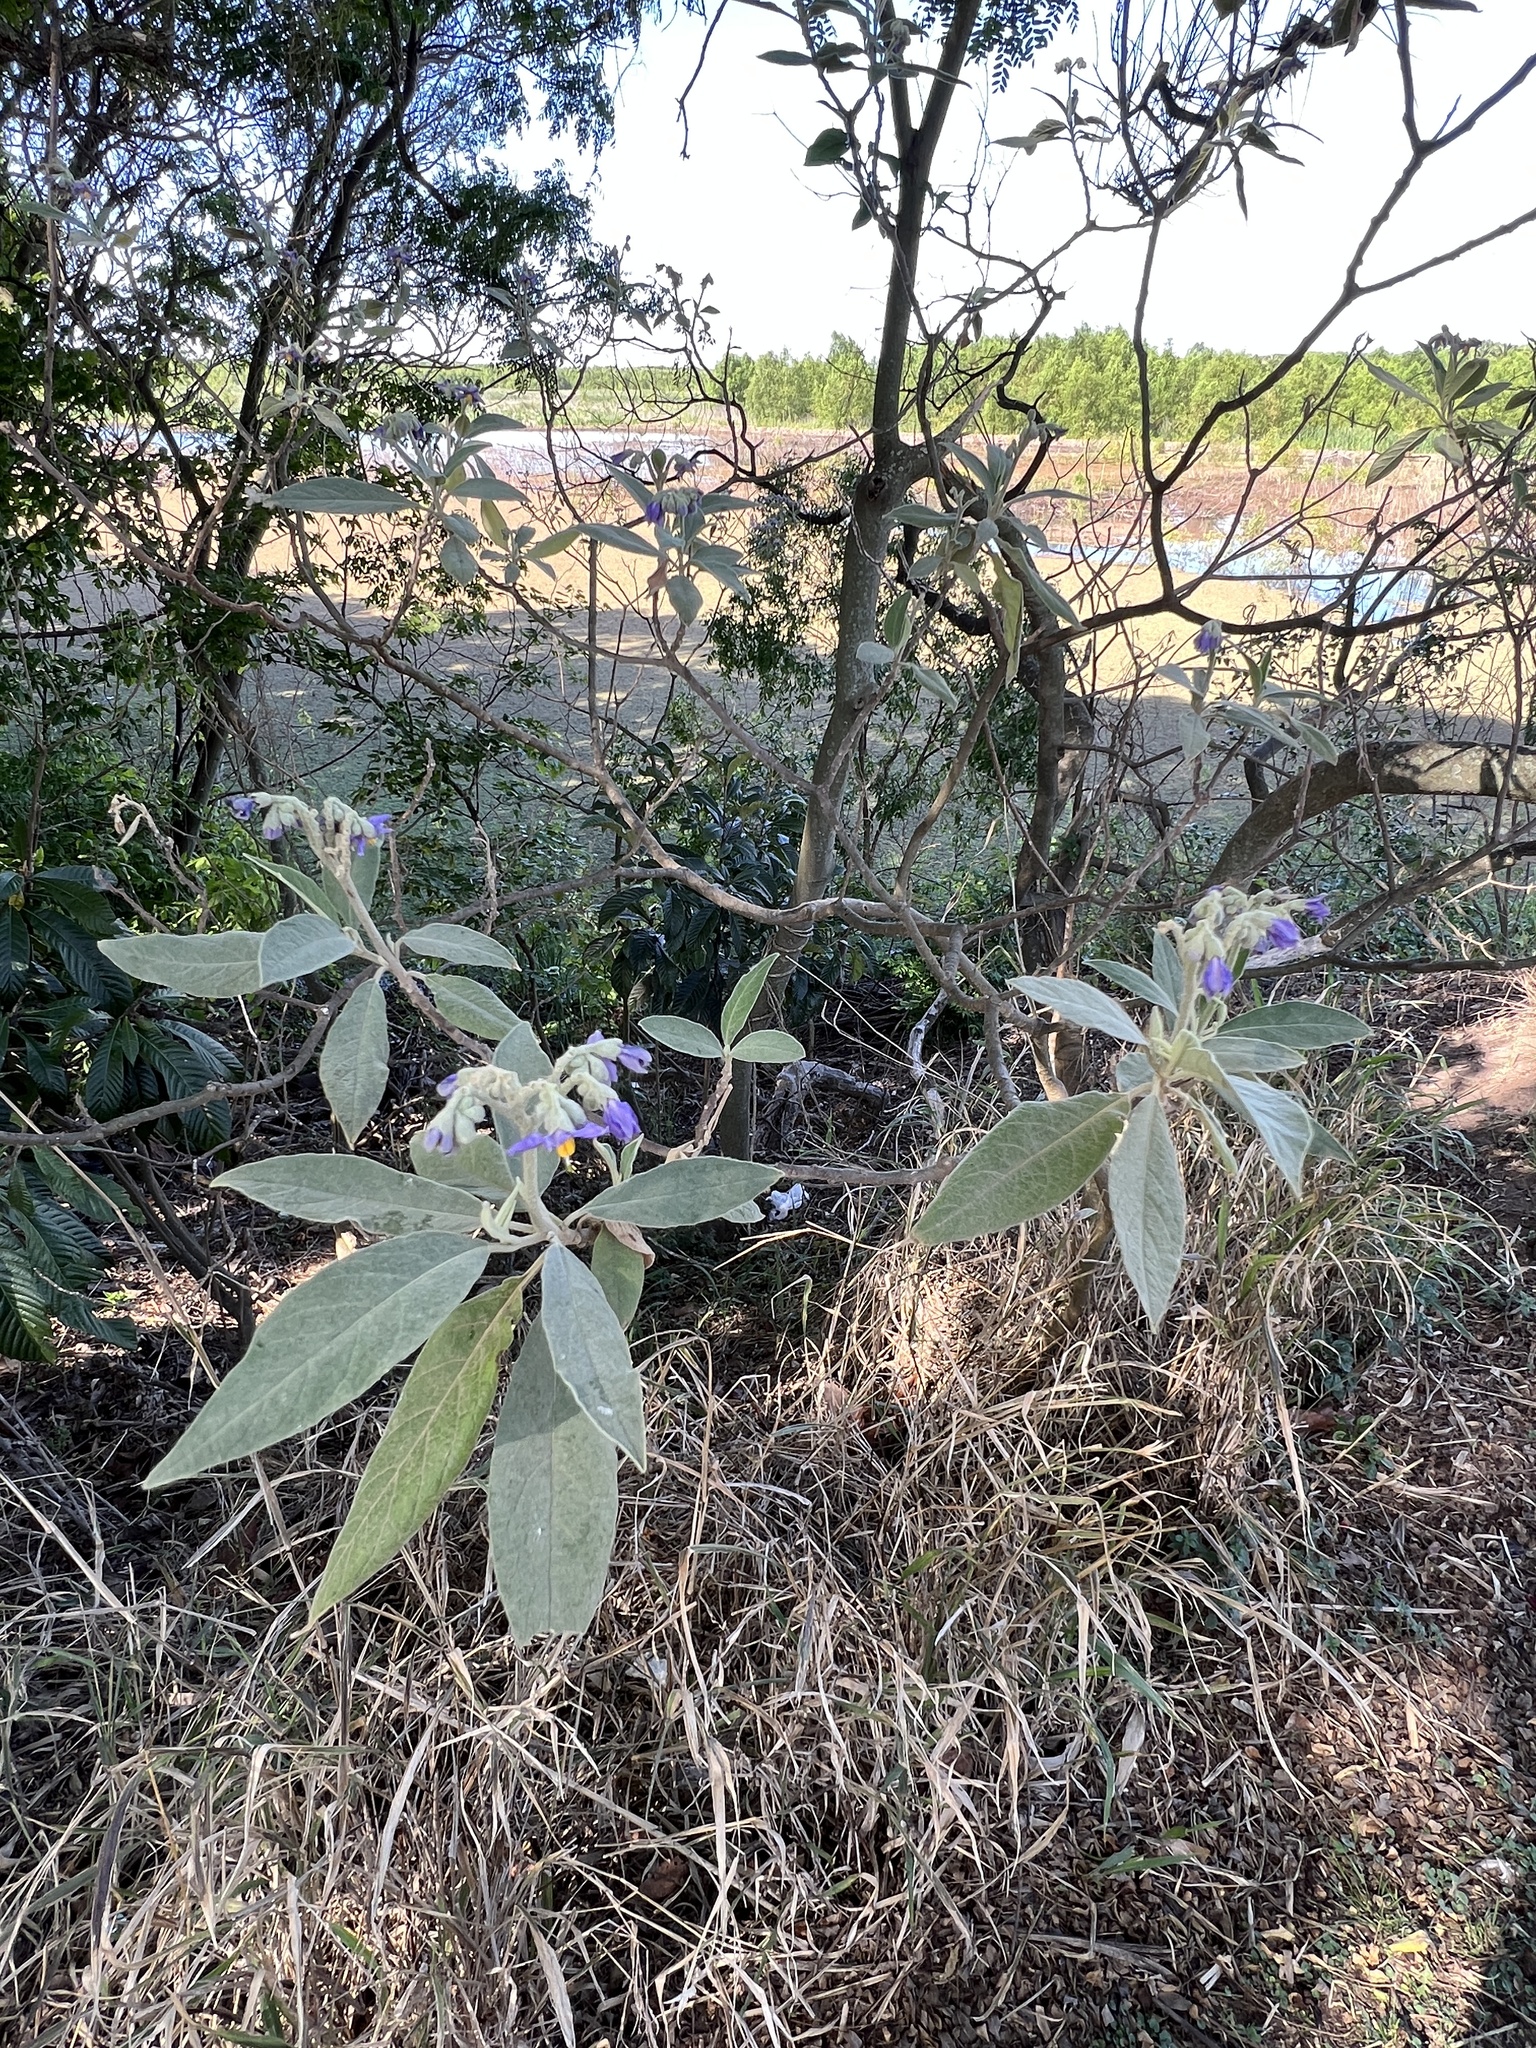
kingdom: Plantae
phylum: Tracheophyta
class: Magnoliopsida
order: Solanales
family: Solanaceae
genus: Solanum
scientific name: Solanum granulosoleprosum
